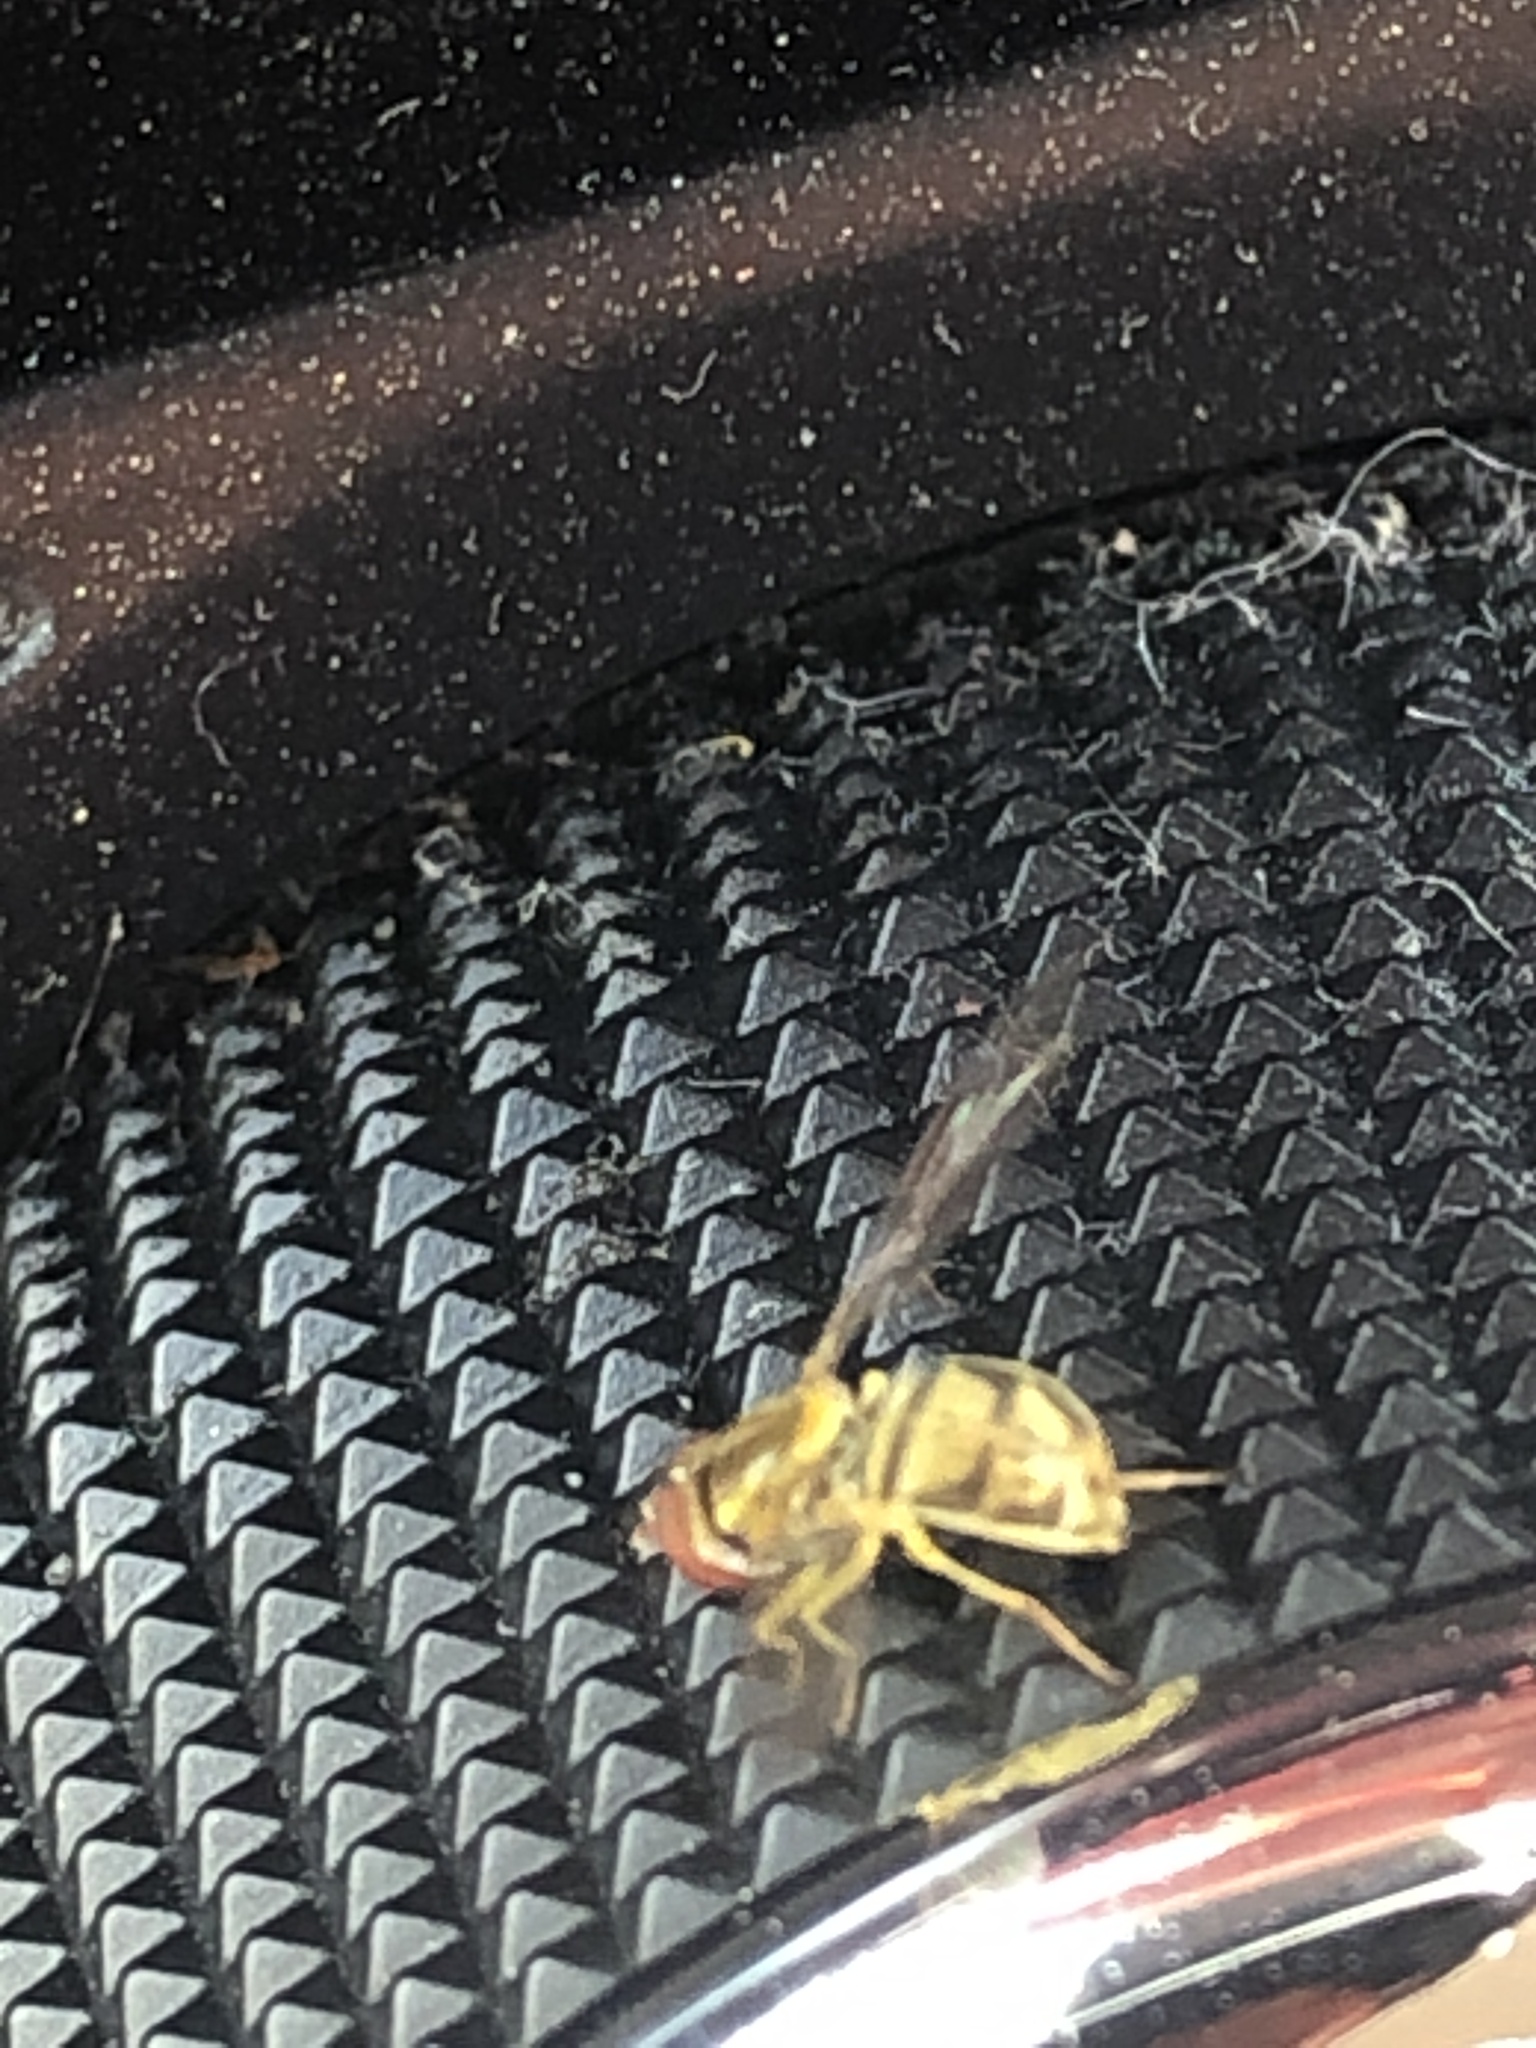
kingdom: Animalia
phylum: Arthropoda
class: Insecta
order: Diptera
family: Syrphidae
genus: Toxomerus
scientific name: Toxomerus marginatus
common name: Syrphid fly
